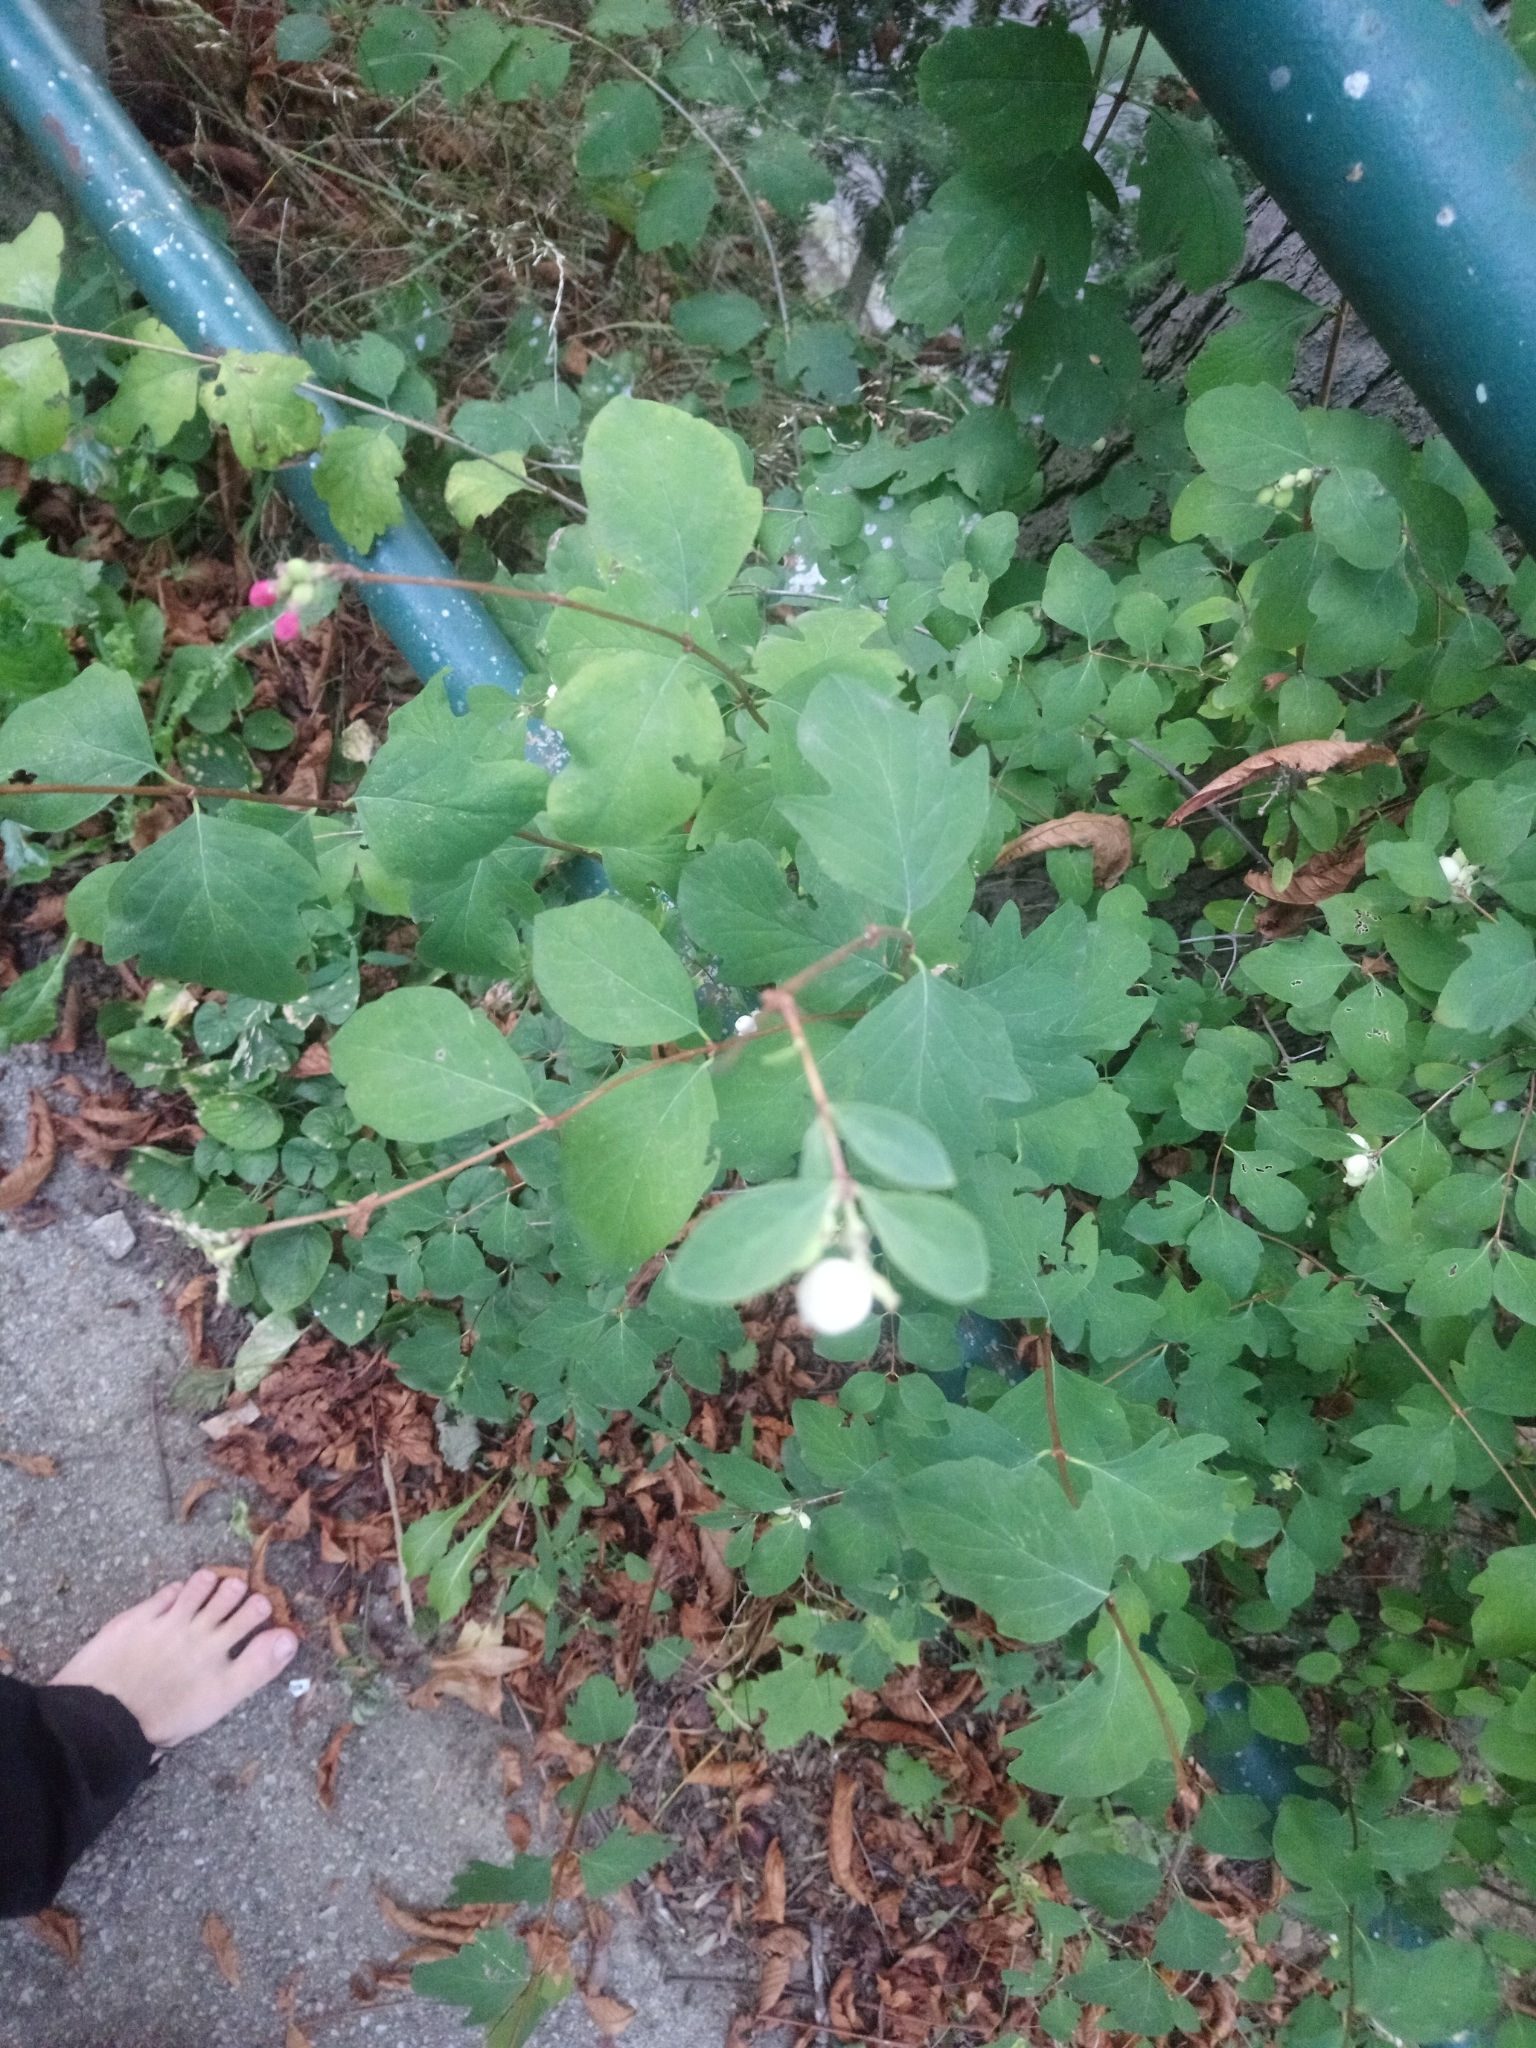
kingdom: Plantae
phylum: Tracheophyta
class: Magnoliopsida
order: Dipsacales
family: Caprifoliaceae
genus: Symphoricarpos
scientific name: Symphoricarpos albus
